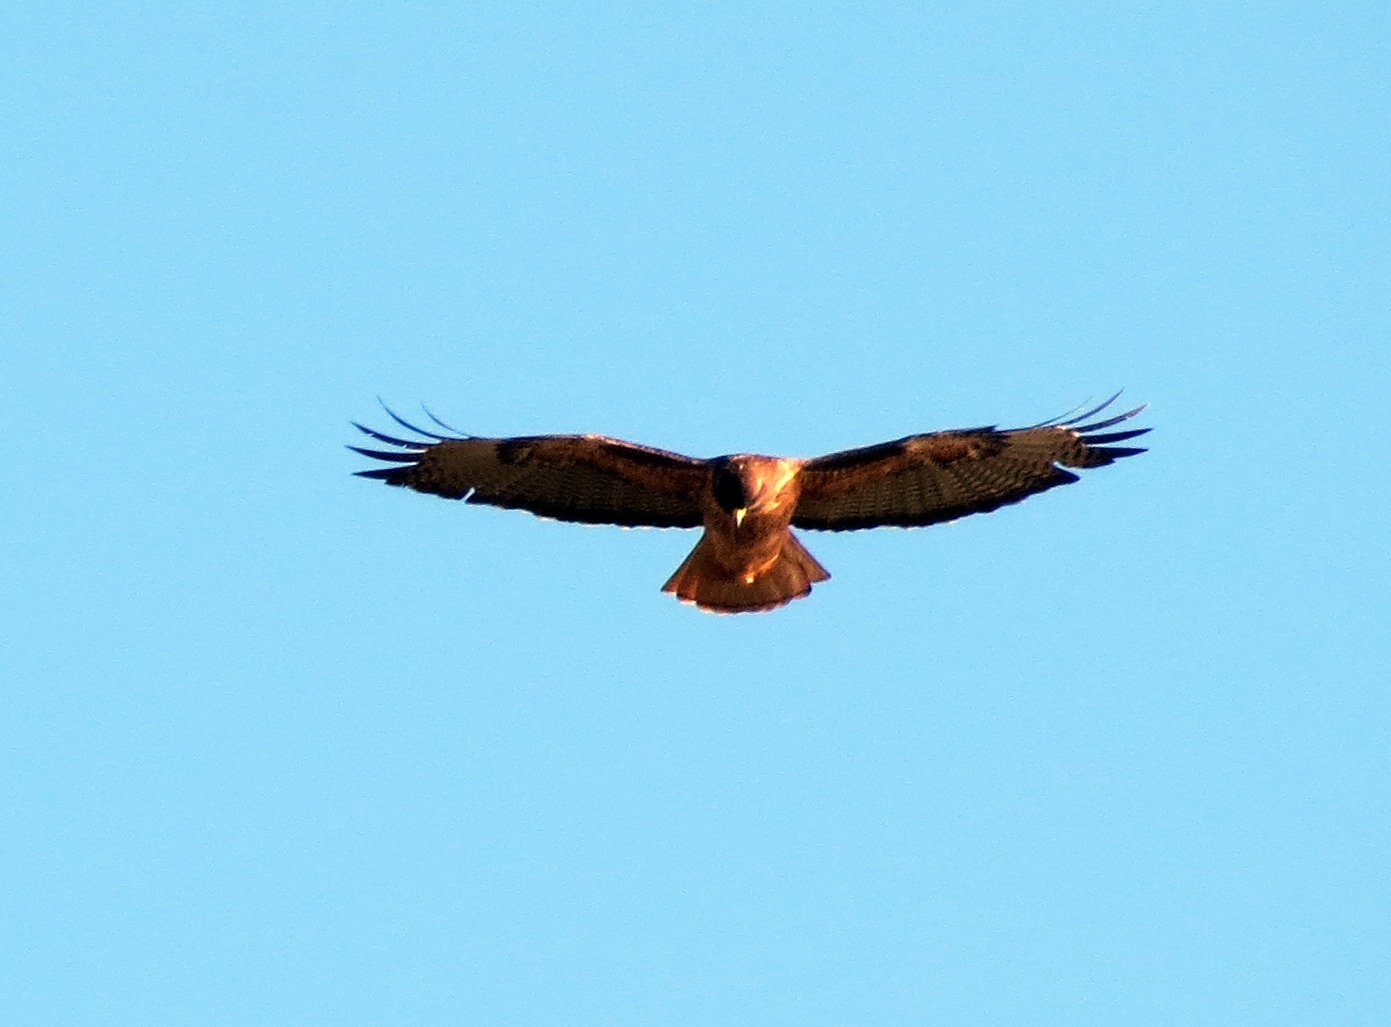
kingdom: Animalia
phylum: Chordata
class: Aves
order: Accipitriformes
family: Accipitridae
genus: Buteo
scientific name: Buteo jamaicensis
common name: Red-tailed hawk
